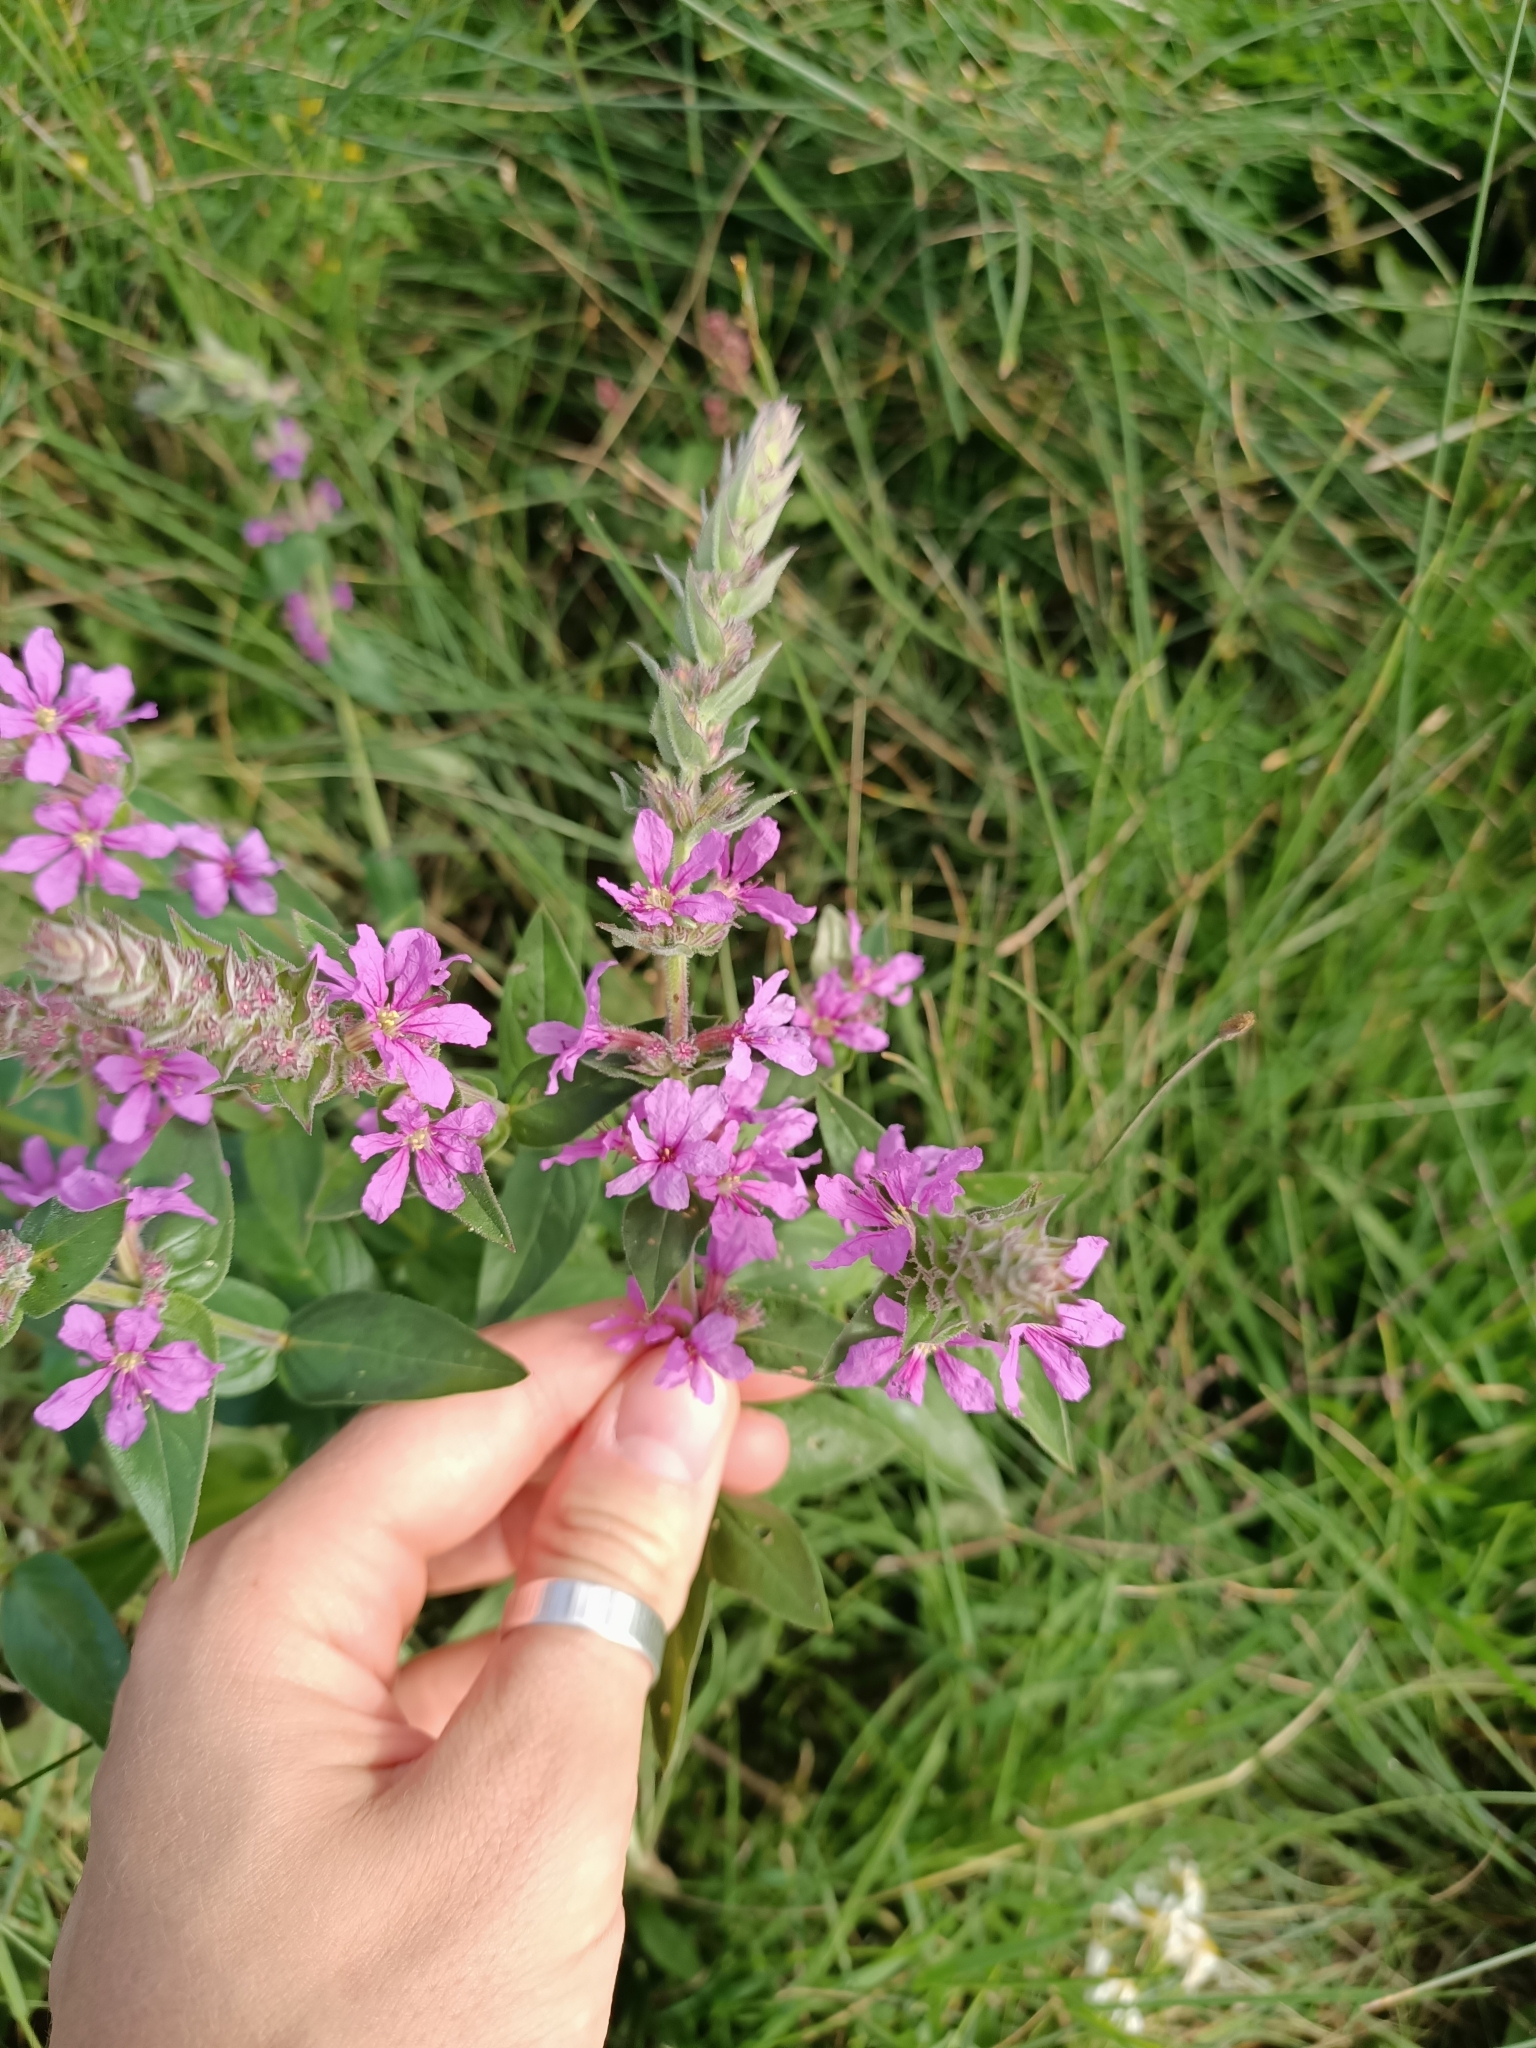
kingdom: Plantae
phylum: Tracheophyta
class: Magnoliopsida
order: Myrtales
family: Lythraceae
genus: Lythrum
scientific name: Lythrum salicaria
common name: Purple loosestrife
